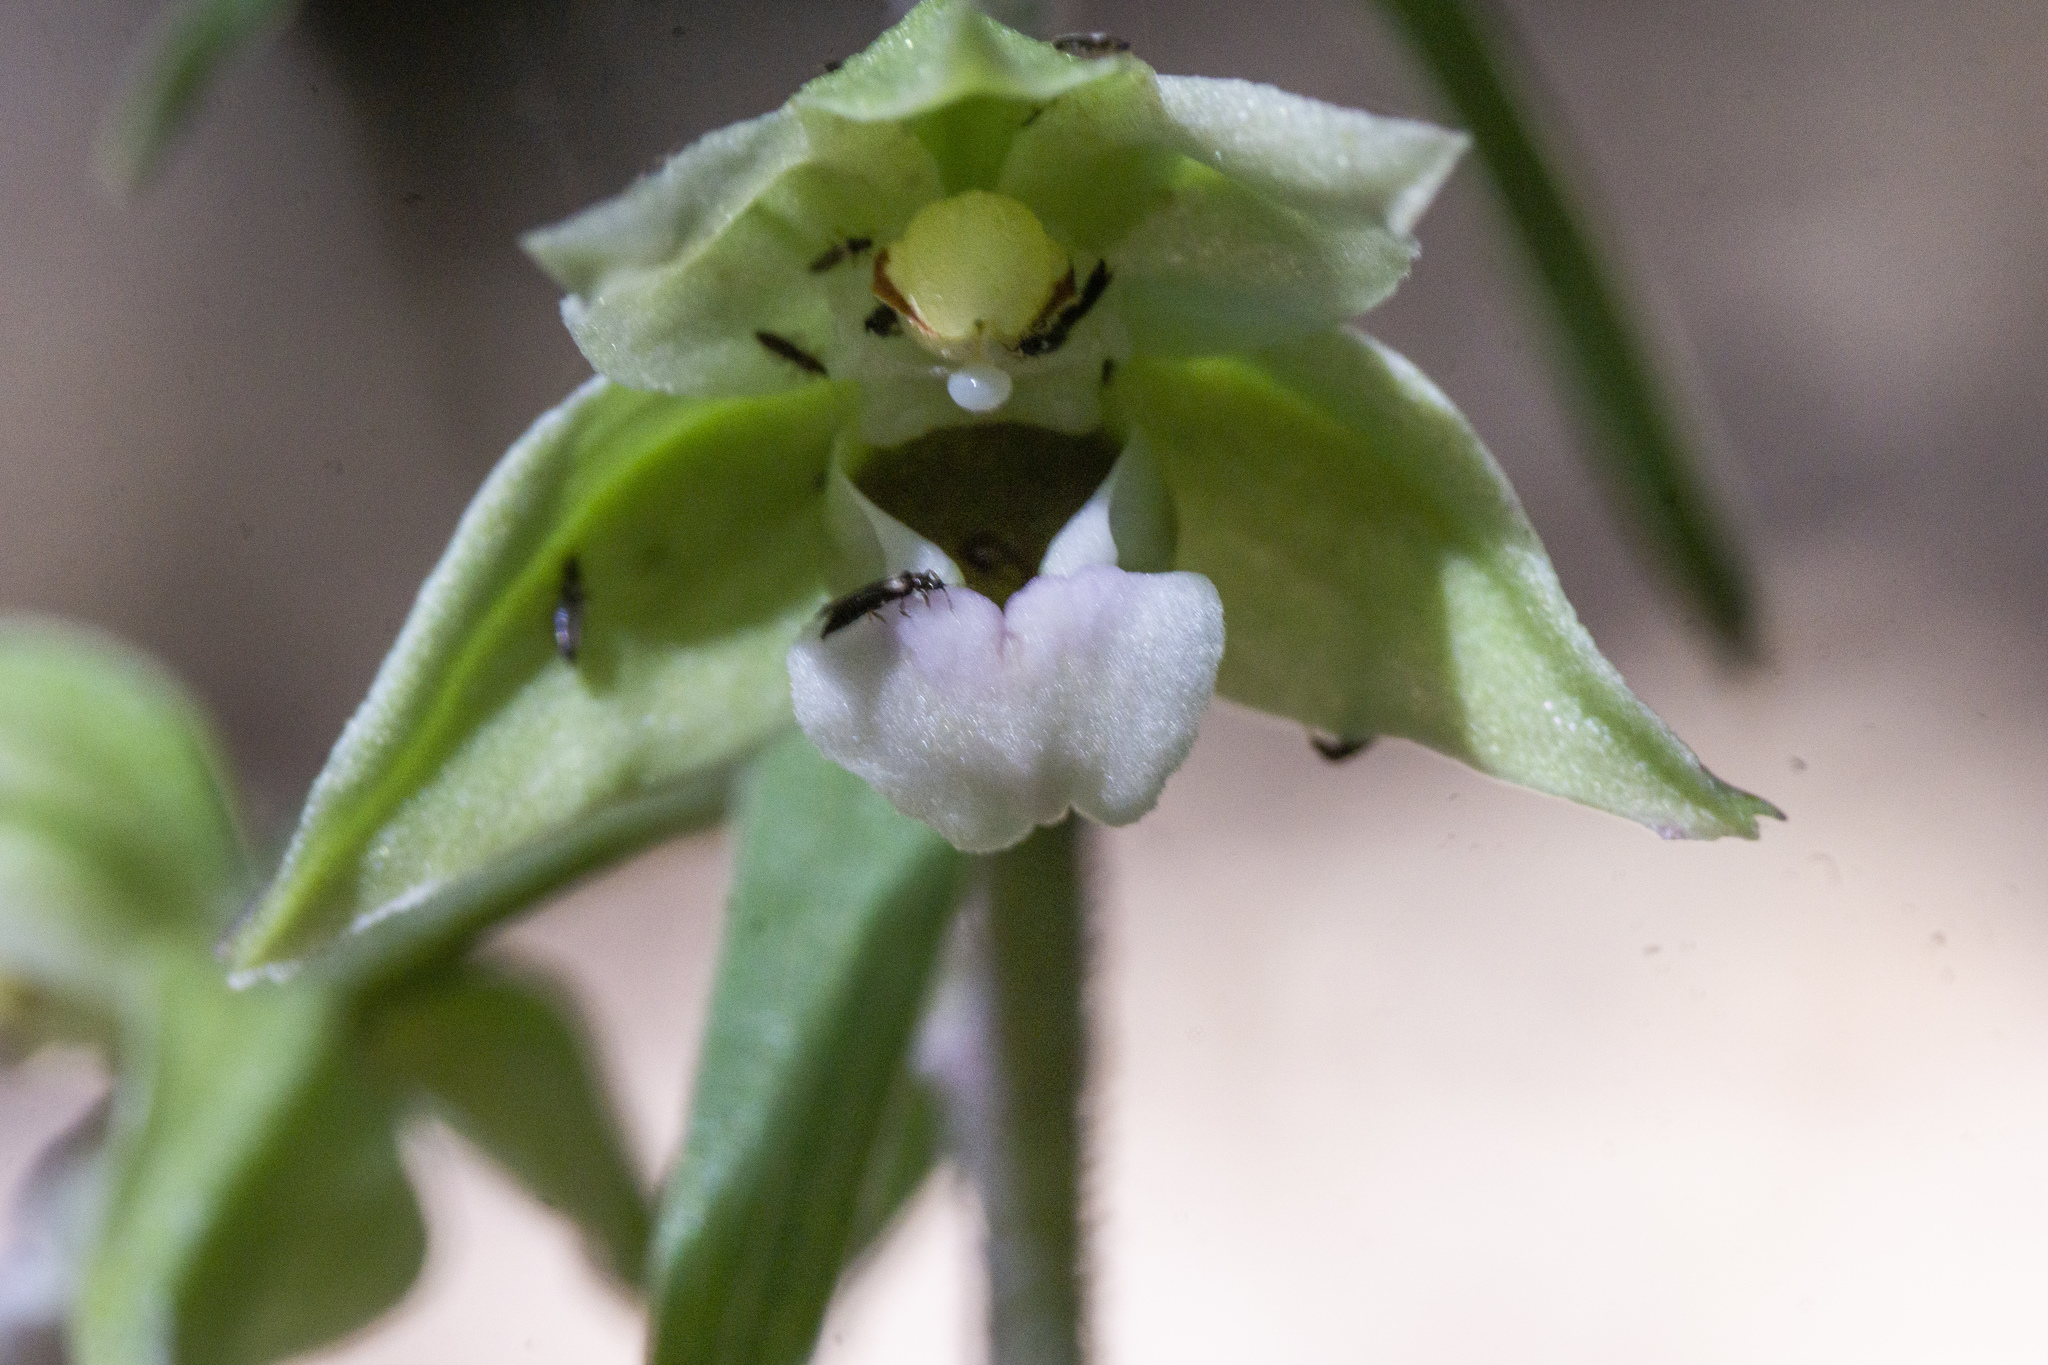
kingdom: Plantae
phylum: Tracheophyta
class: Liliopsida
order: Asparagales
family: Orchidaceae
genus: Epipactis
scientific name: Epipactis purpurata
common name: Violet helleborine
